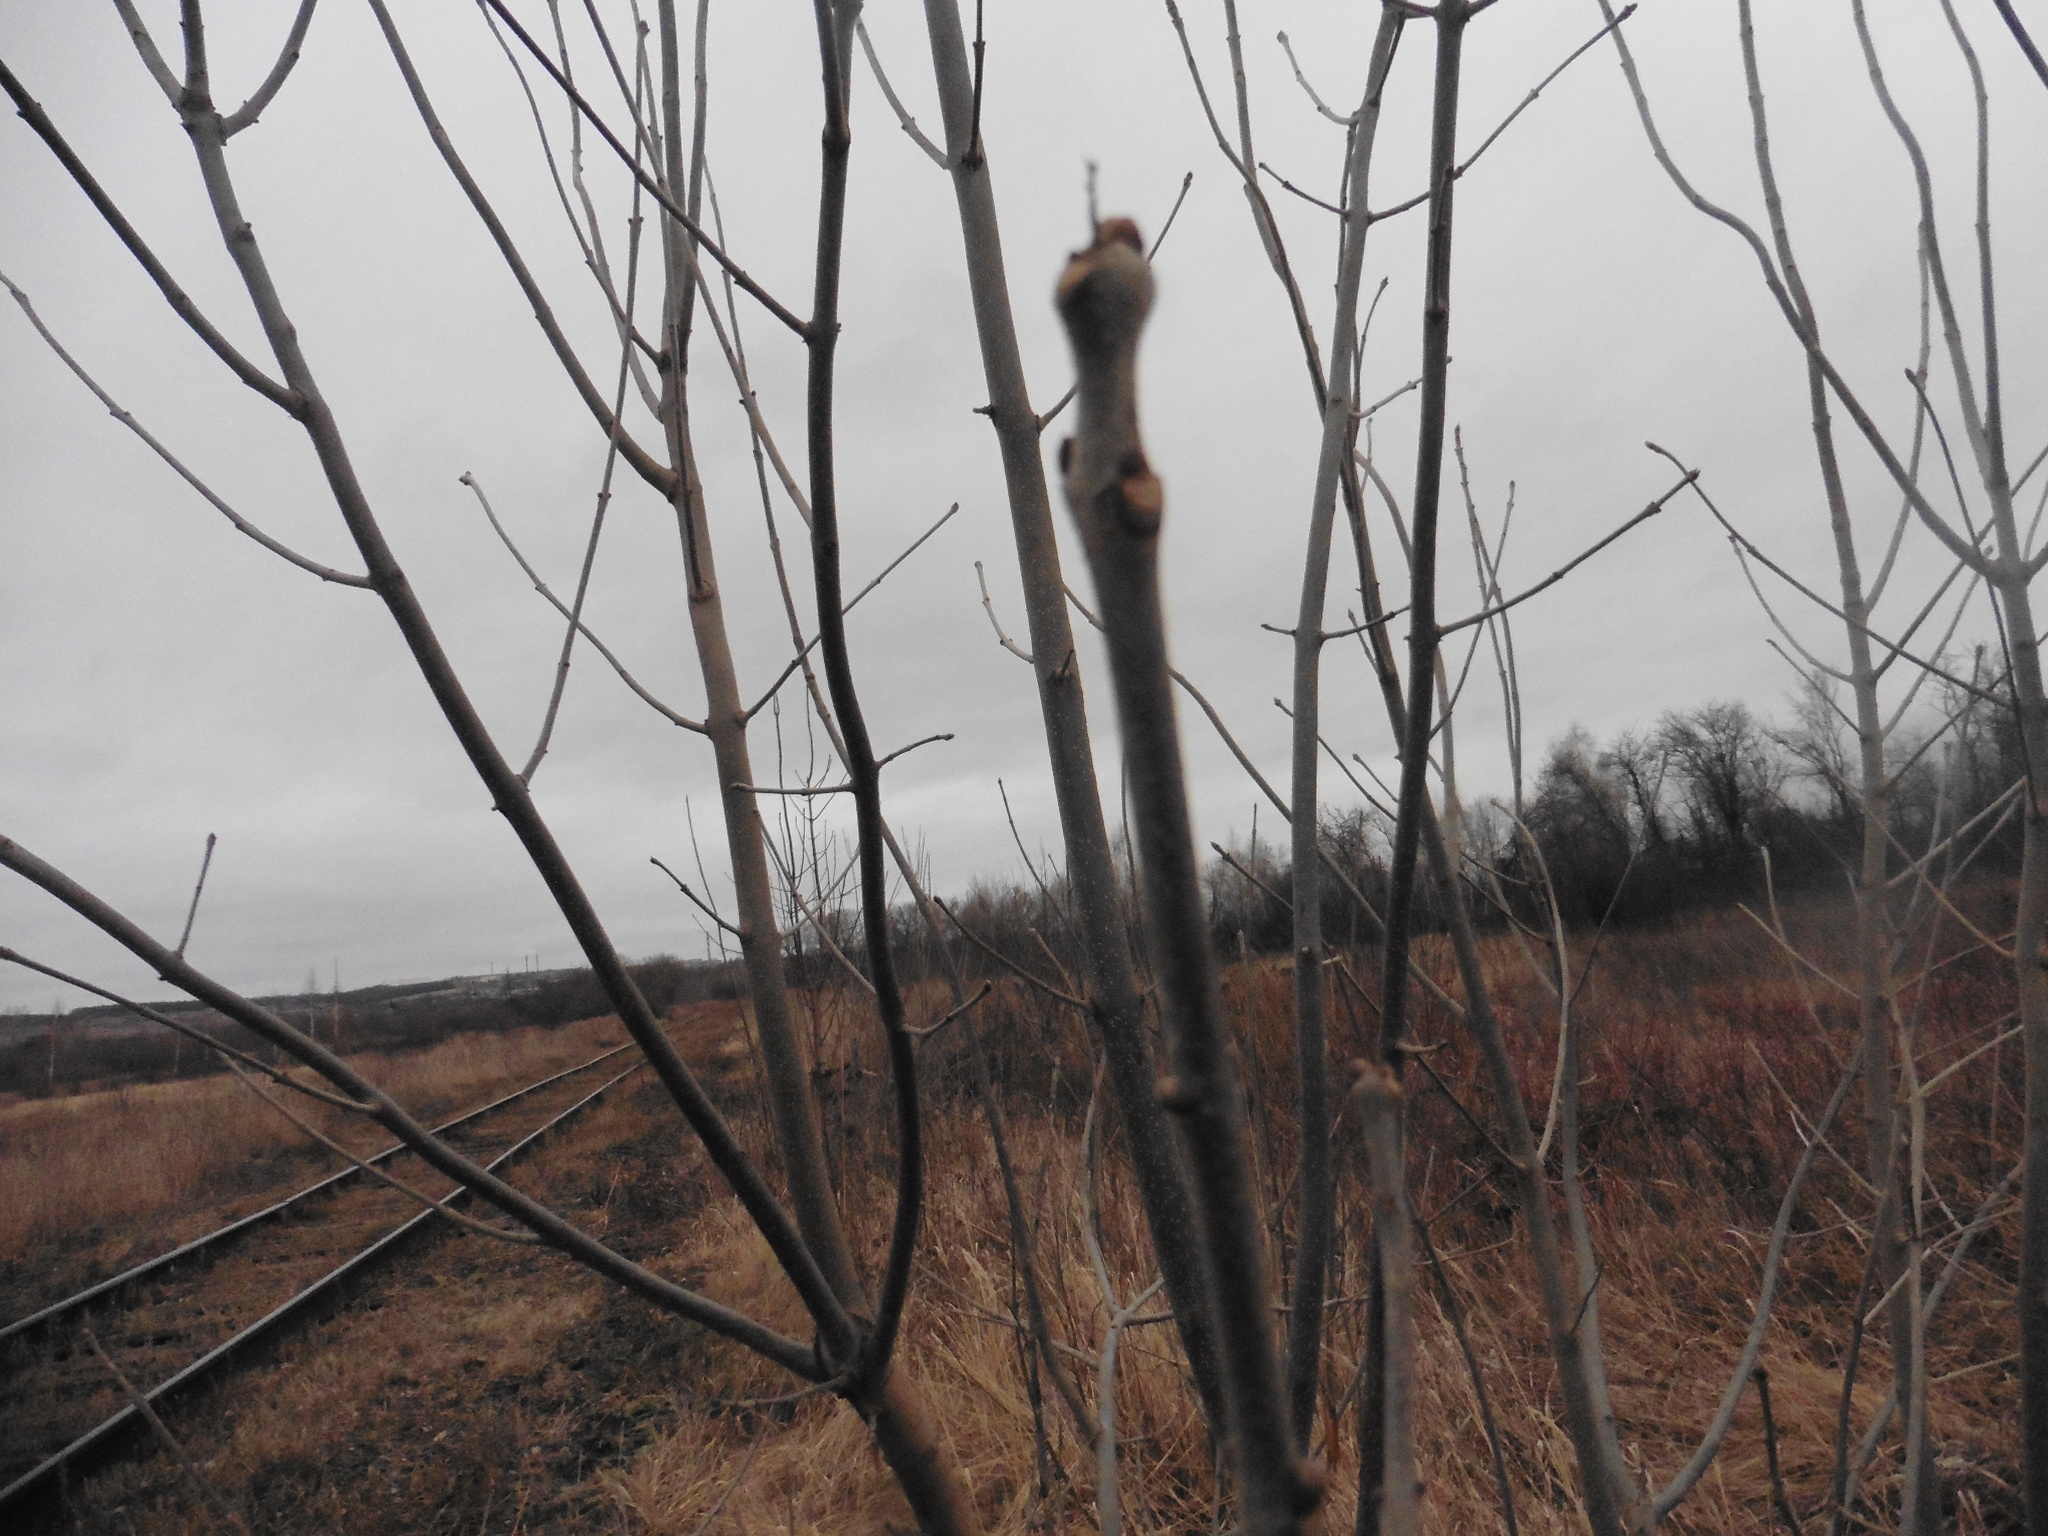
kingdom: Plantae
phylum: Tracheophyta
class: Magnoliopsida
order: Lamiales
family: Oleaceae
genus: Fraxinus
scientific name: Fraxinus pennsylvanica
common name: Green ash
